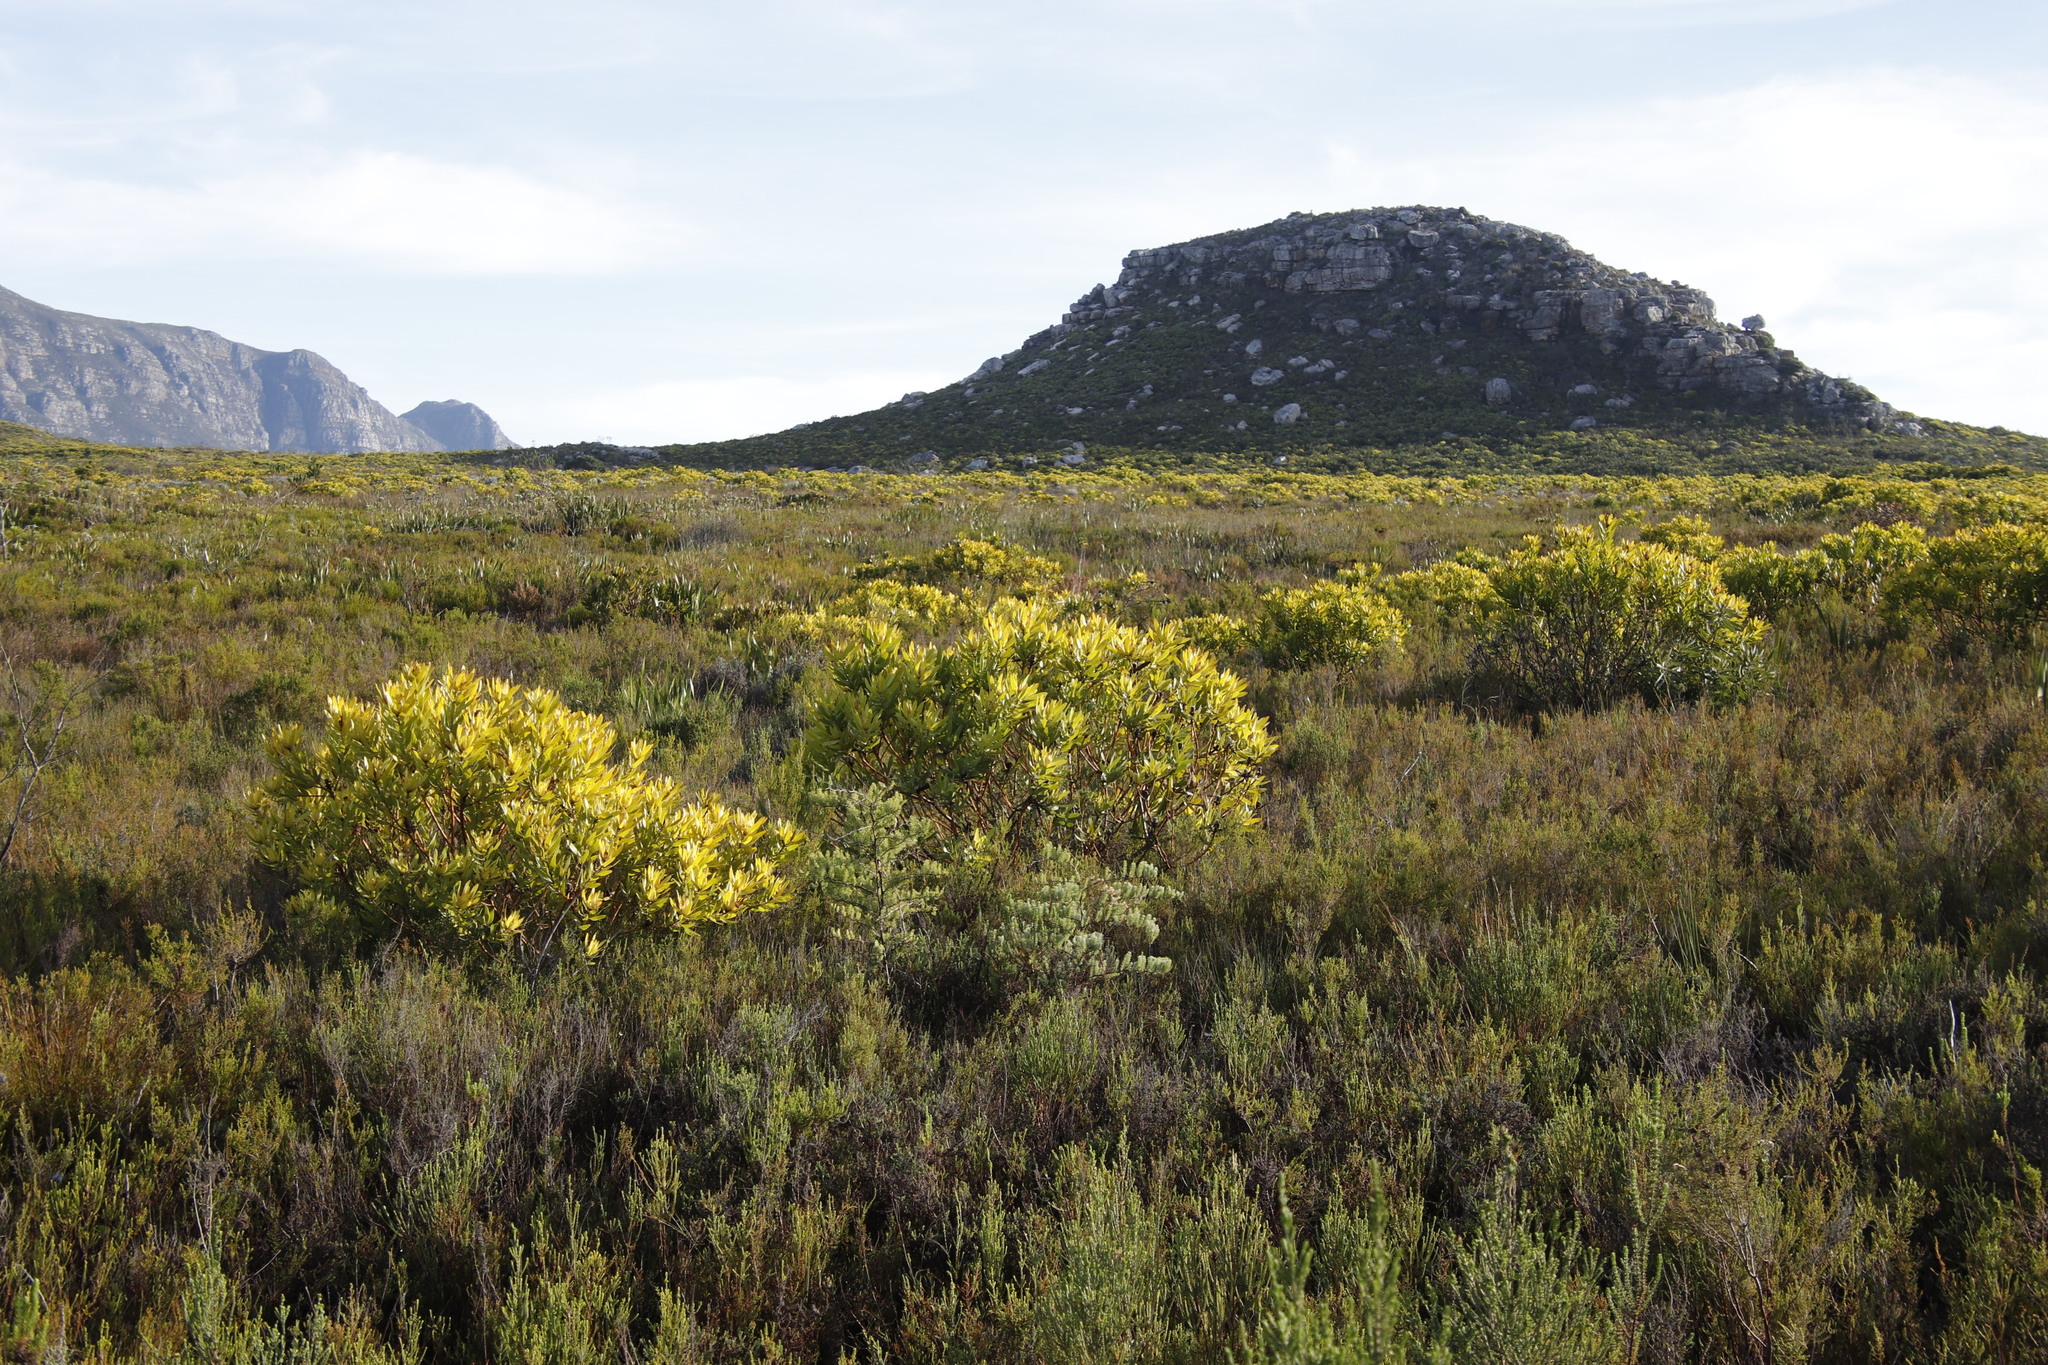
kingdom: Plantae
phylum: Tracheophyta
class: Magnoliopsida
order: Proteales
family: Proteaceae
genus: Leucadendron
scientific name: Leucadendron laureolum
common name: Golden sunshinebush
